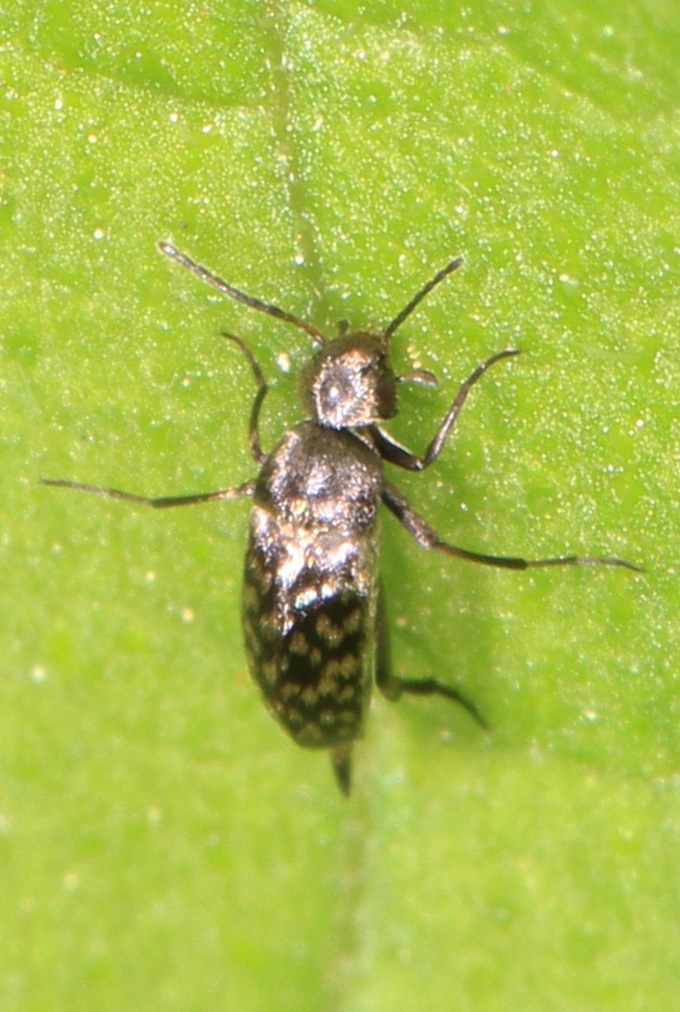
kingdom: Animalia
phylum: Arthropoda
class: Insecta
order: Coleoptera
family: Mordellidae
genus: Mordellina
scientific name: Mordellina pustulata
